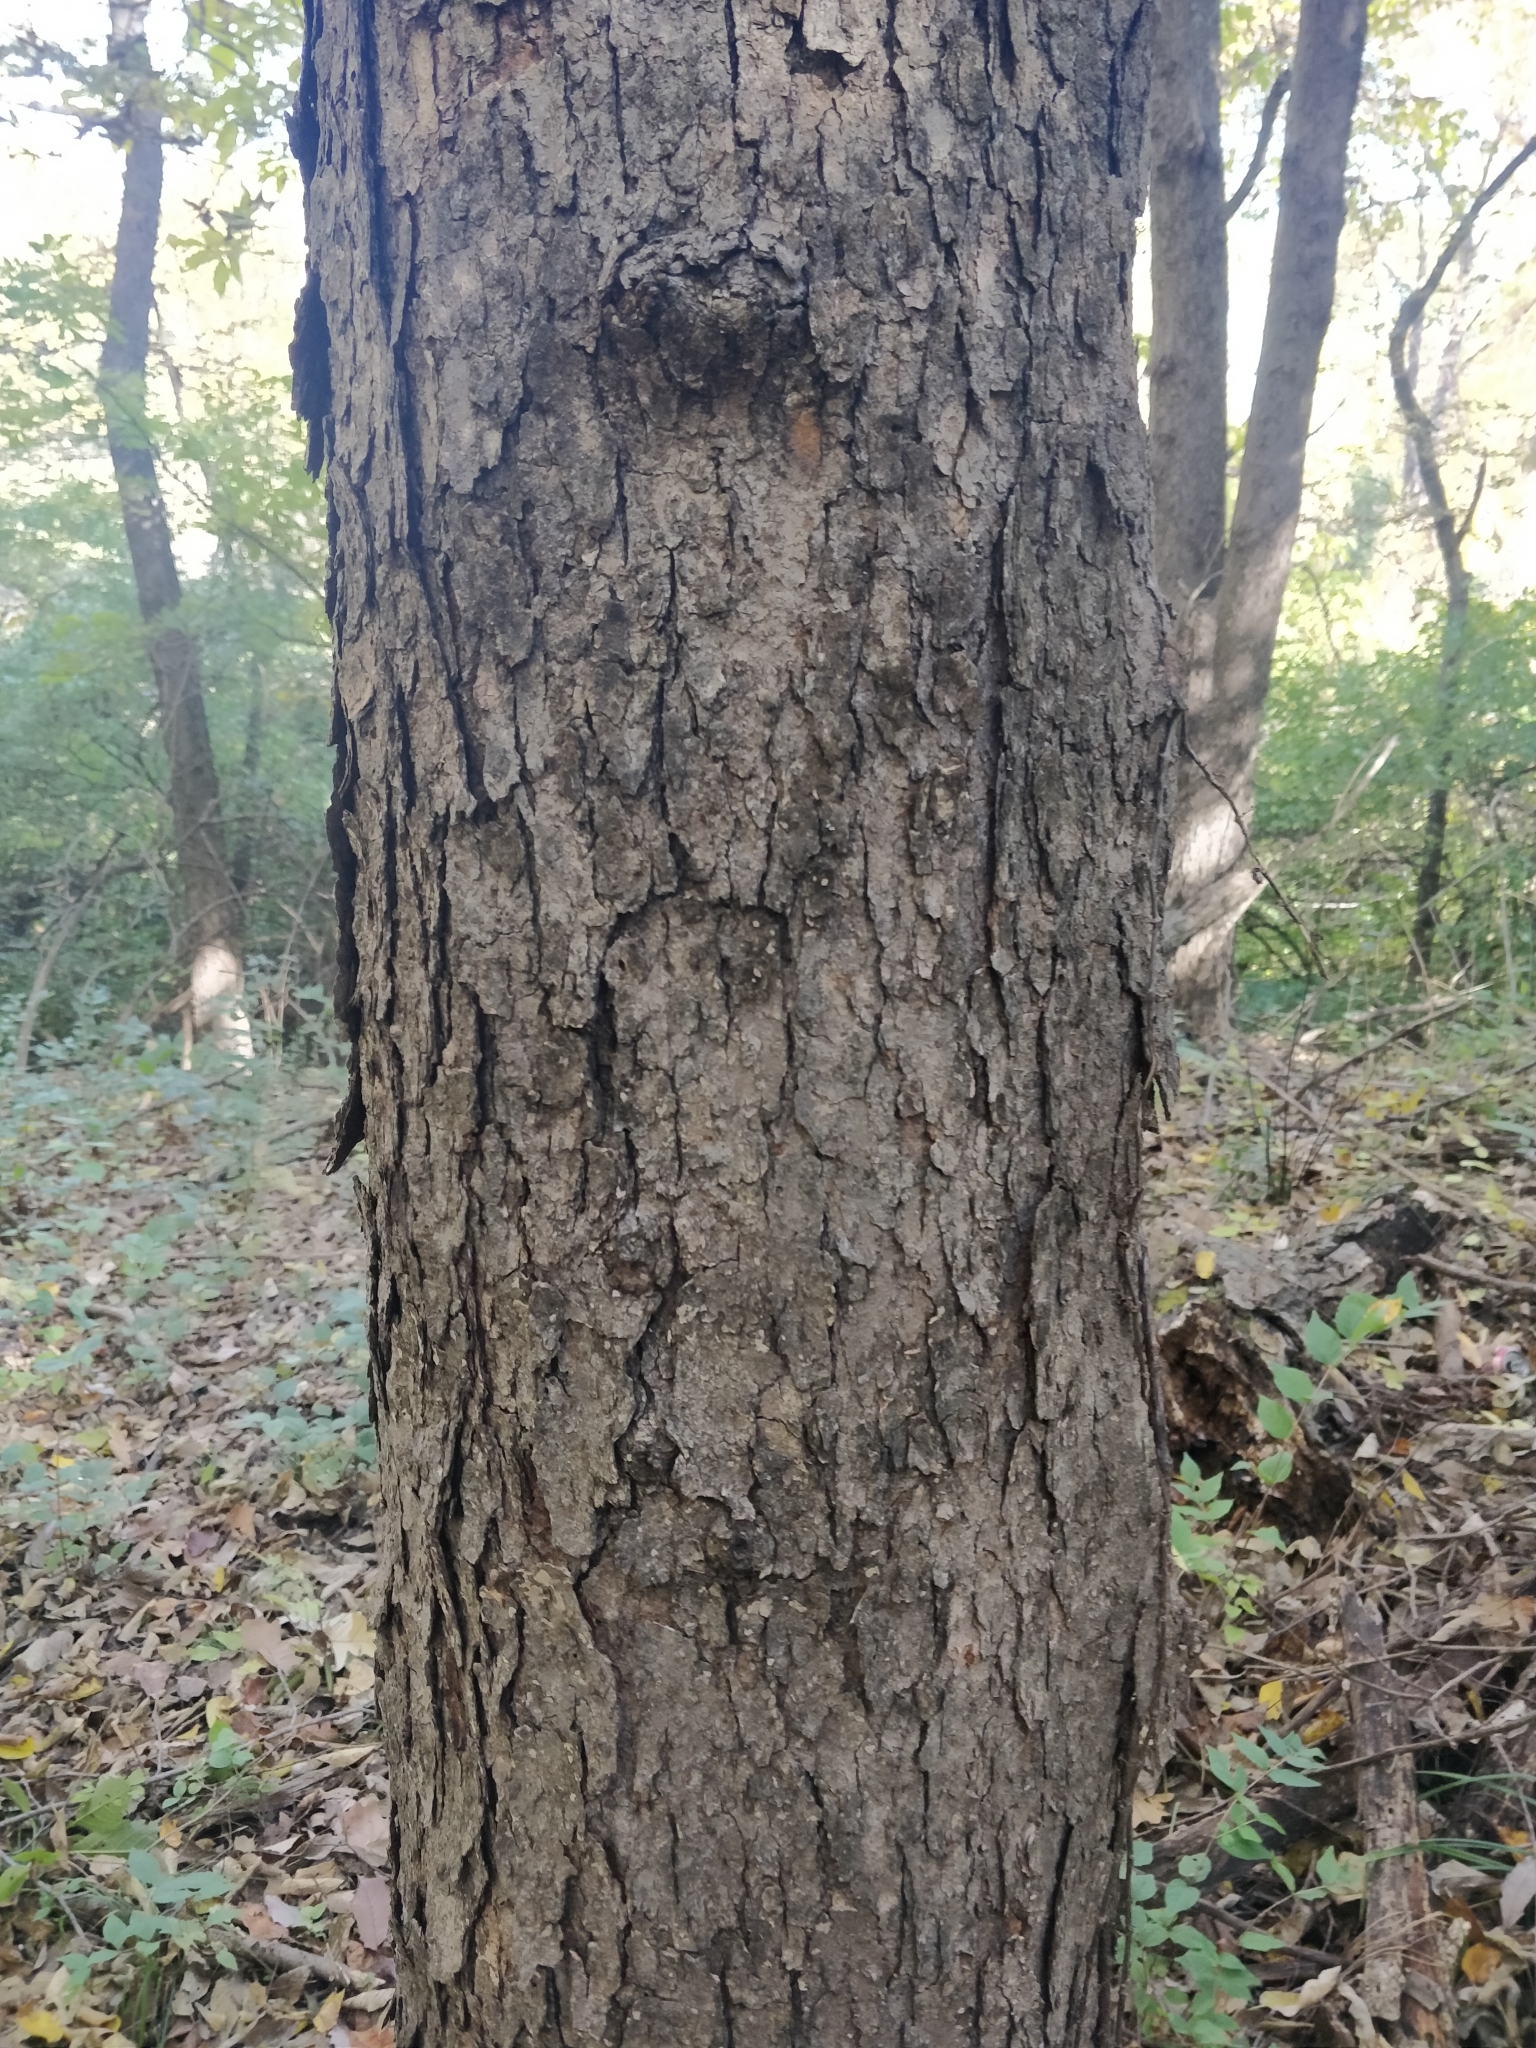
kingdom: Plantae
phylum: Tracheophyta
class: Magnoliopsida
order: Rosales
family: Moraceae
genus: Morus
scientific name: Morus rubra
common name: Red mulberry
